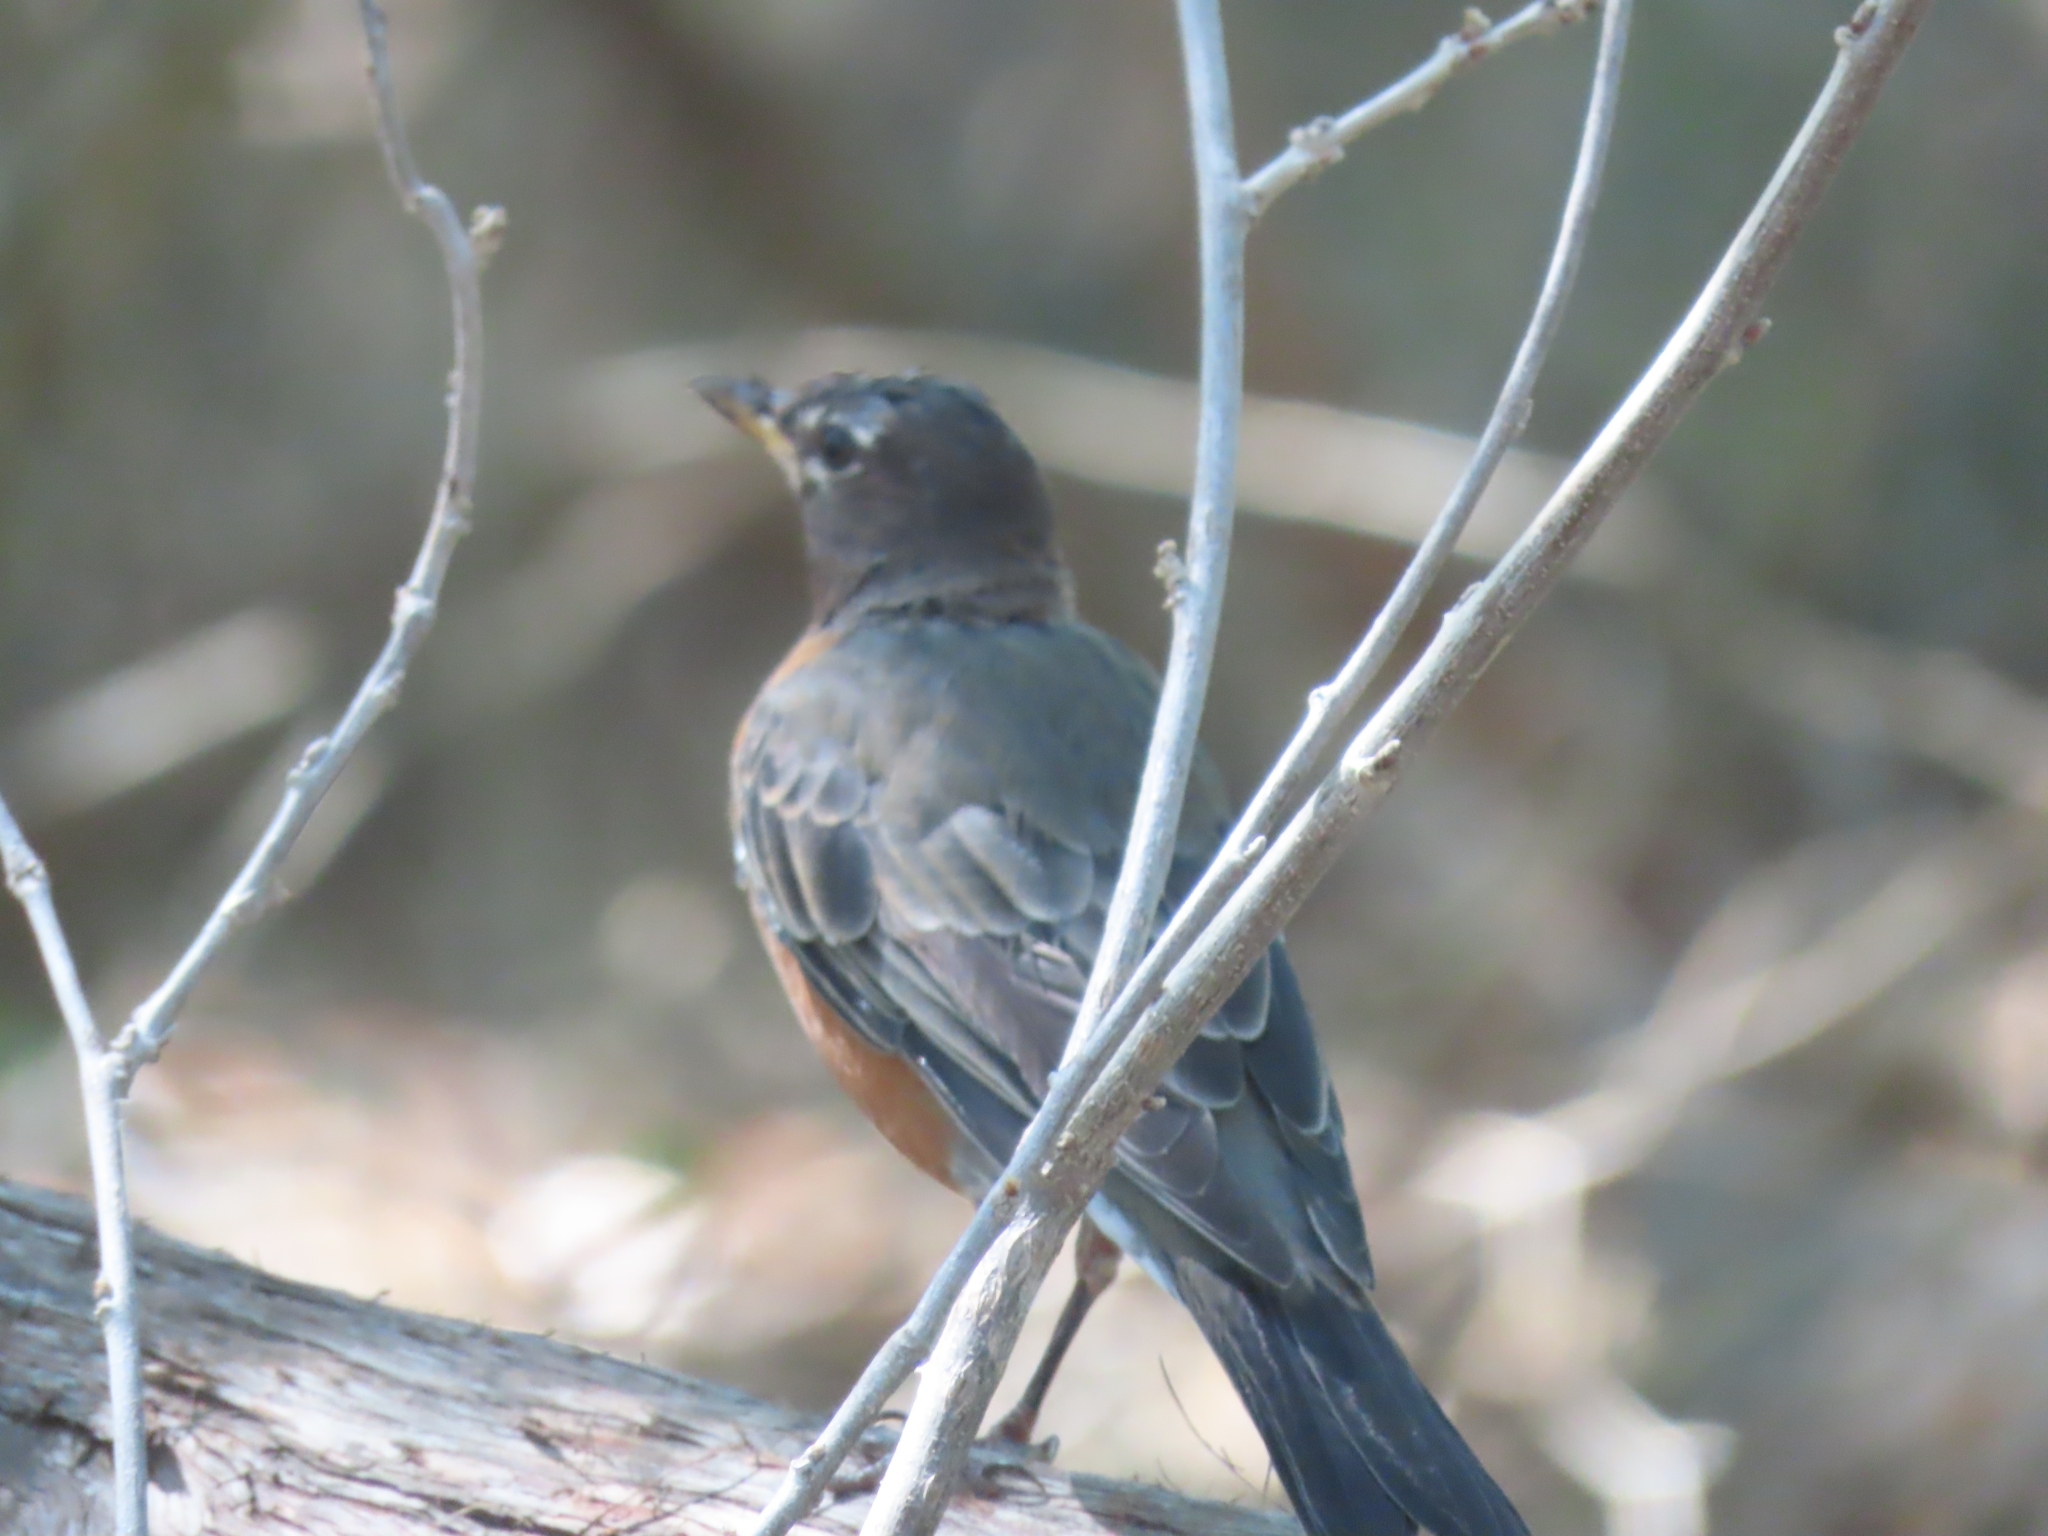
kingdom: Animalia
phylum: Chordata
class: Aves
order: Passeriformes
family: Turdidae
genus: Turdus
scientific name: Turdus migratorius
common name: American robin
